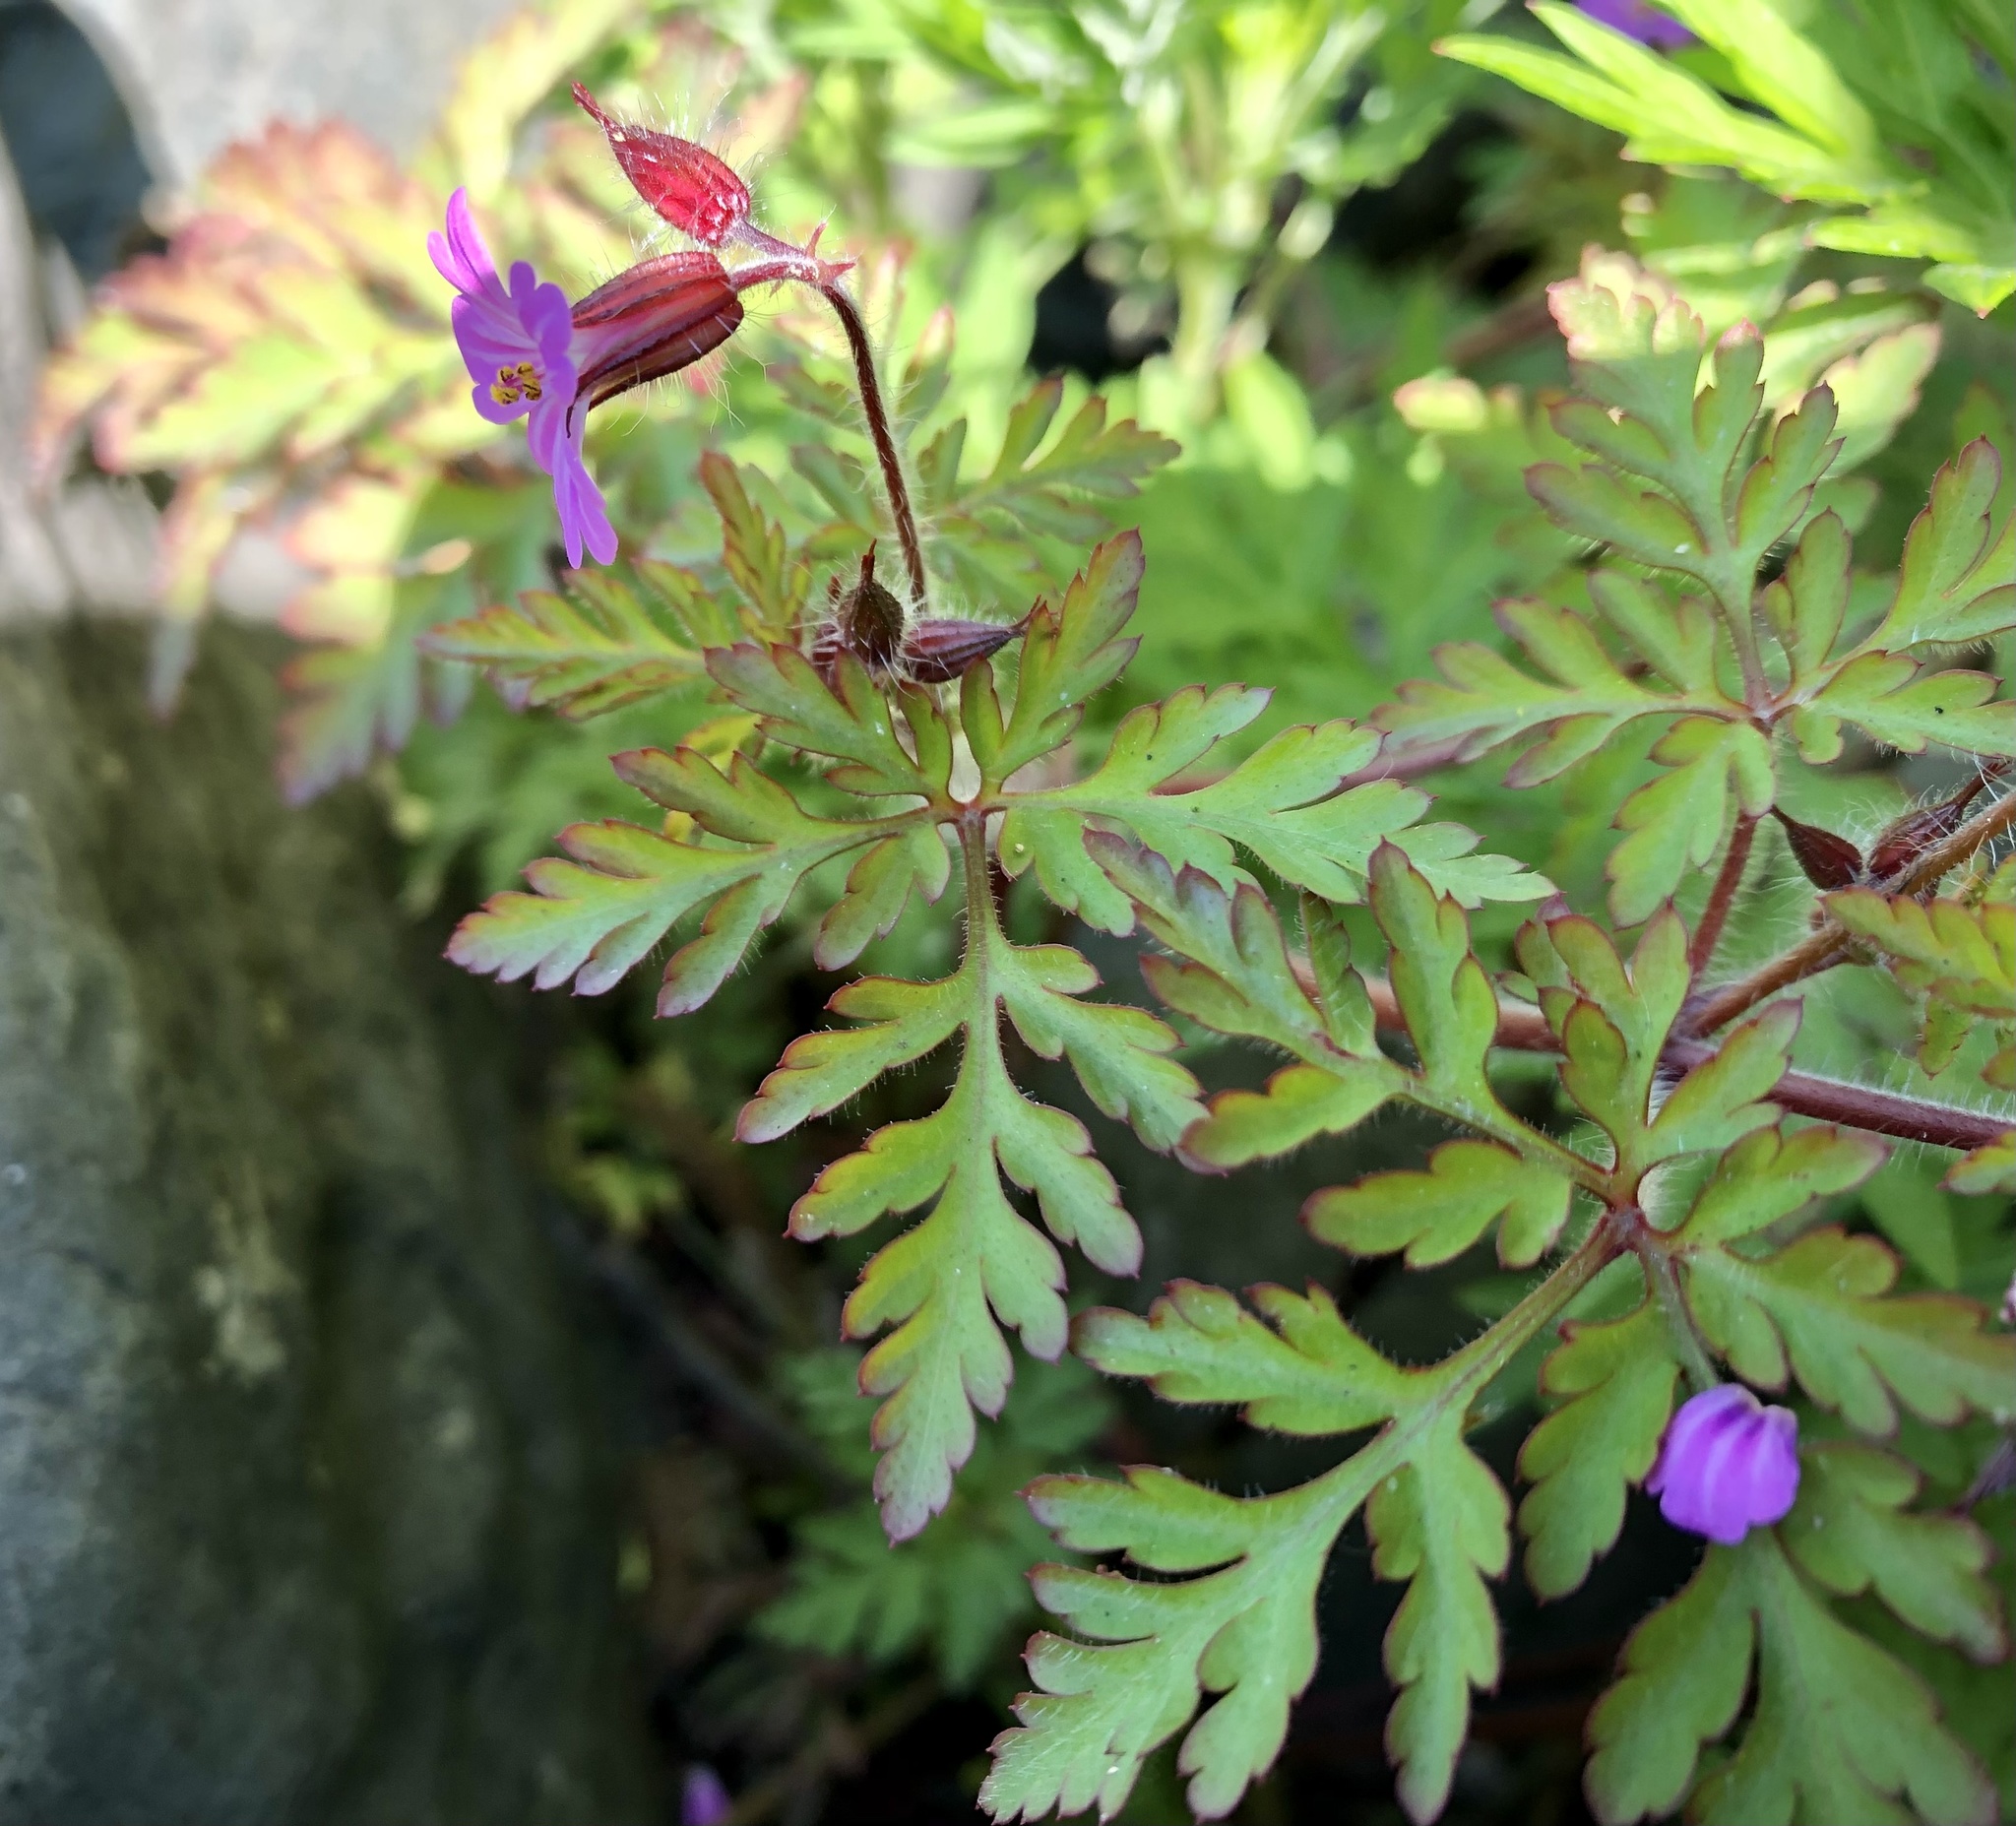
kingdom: Plantae
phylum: Tracheophyta
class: Magnoliopsida
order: Geraniales
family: Geraniaceae
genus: Geranium
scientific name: Geranium robertianum
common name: Herb-robert
